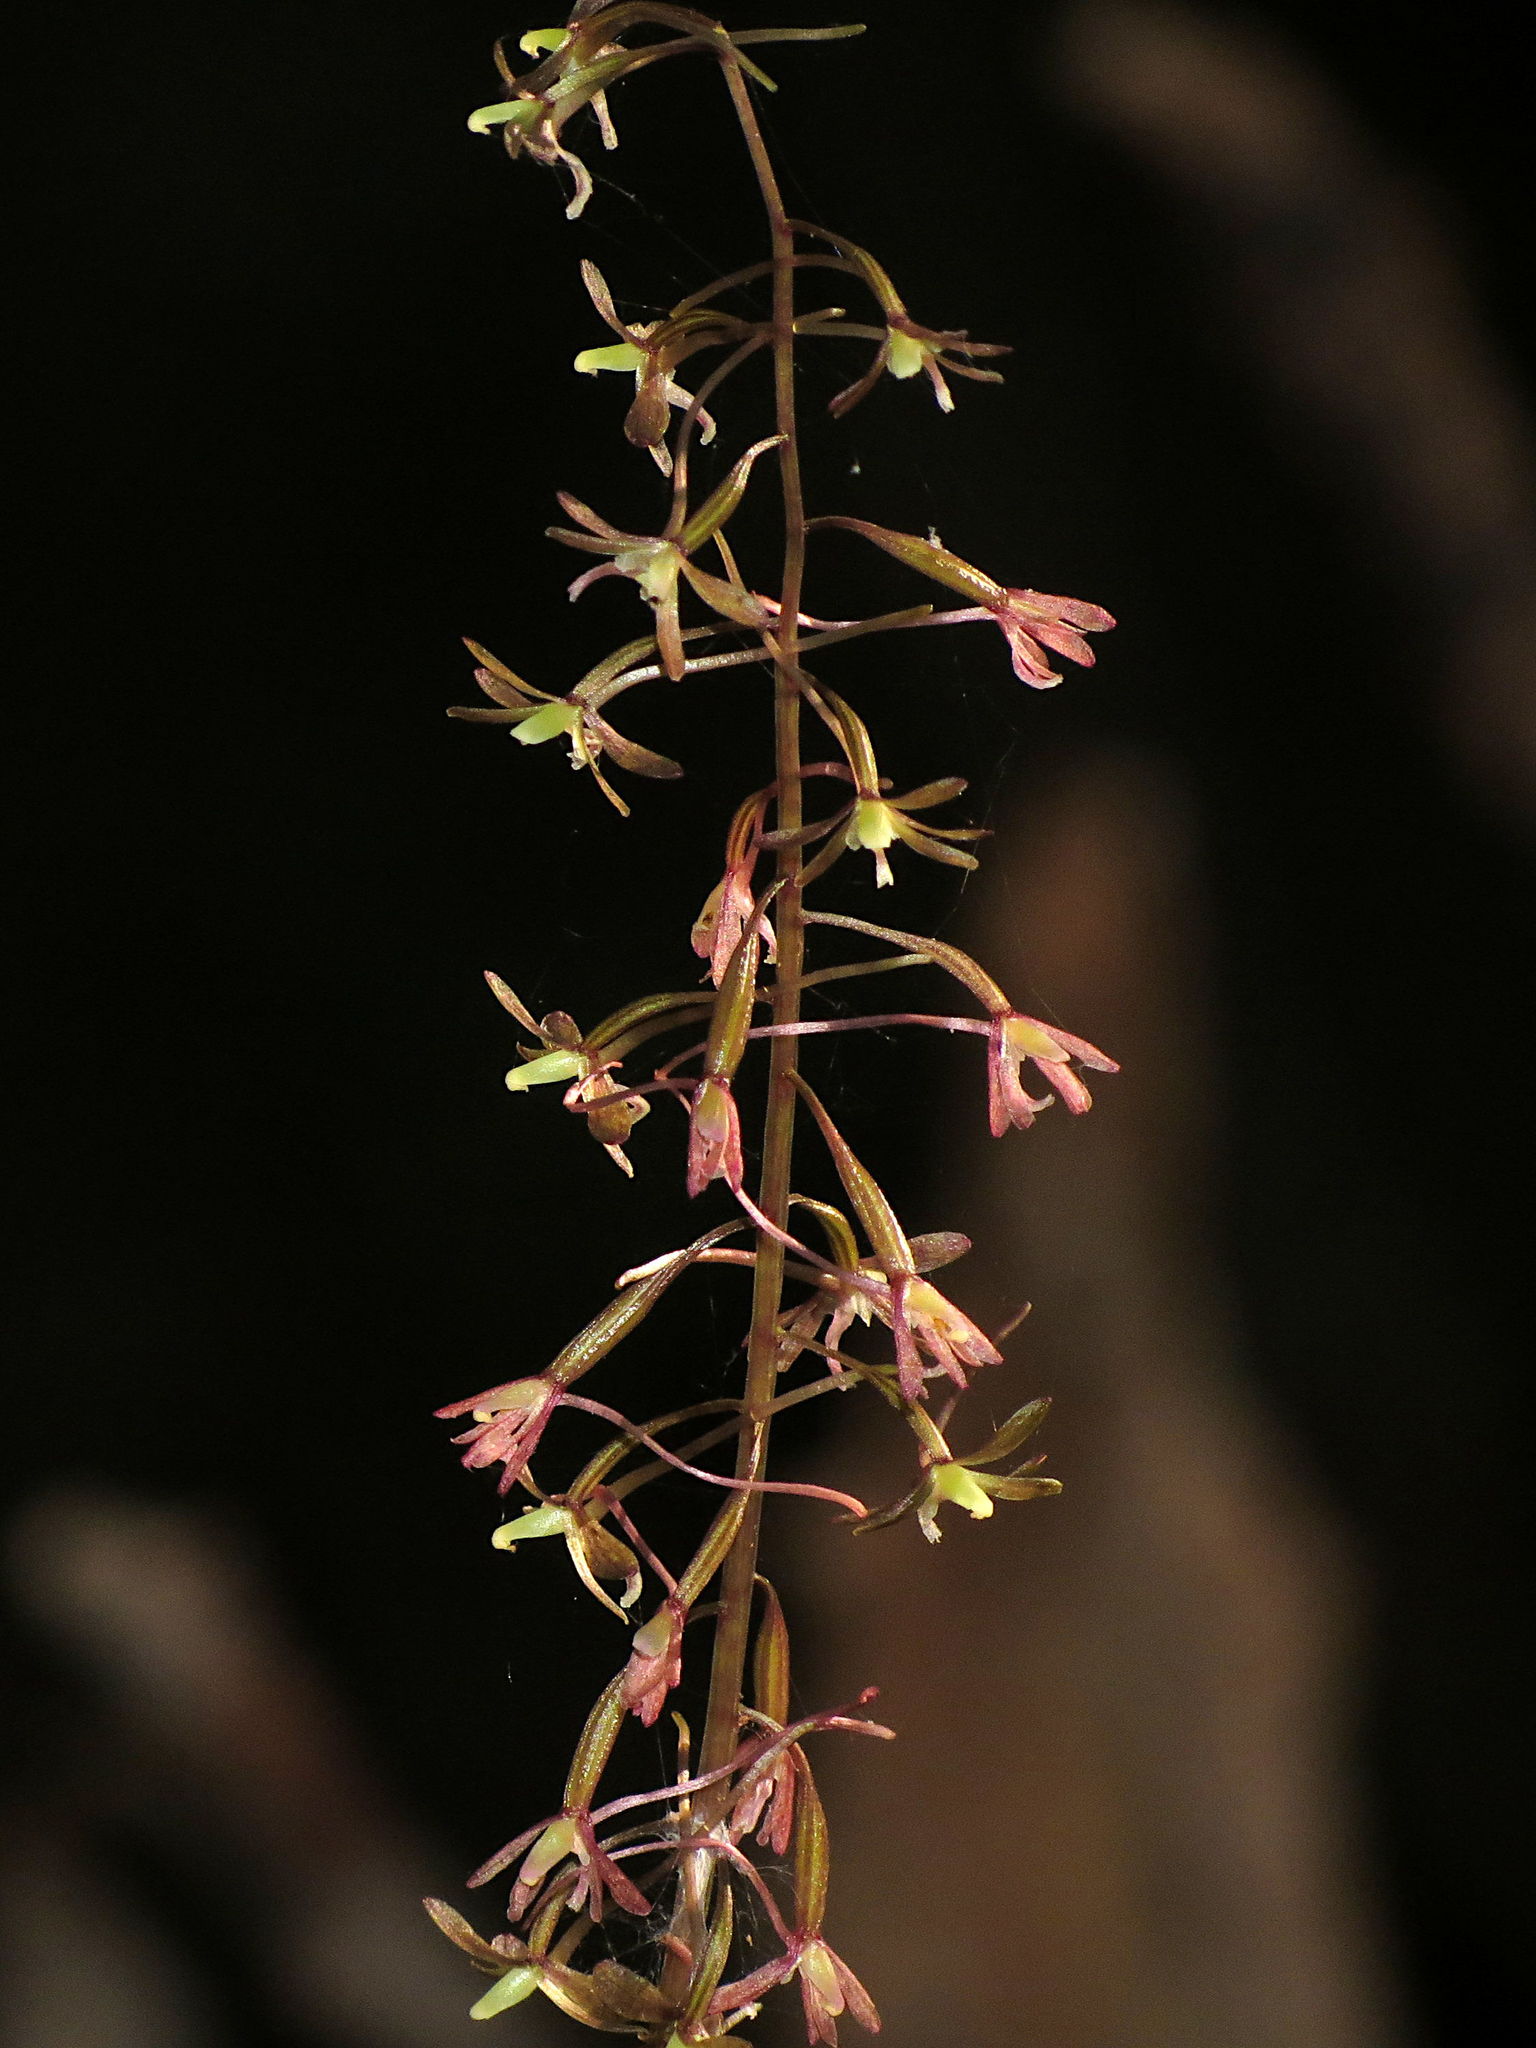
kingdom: Plantae
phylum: Tracheophyta
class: Liliopsida
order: Asparagales
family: Orchidaceae
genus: Tipularia
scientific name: Tipularia discolor
